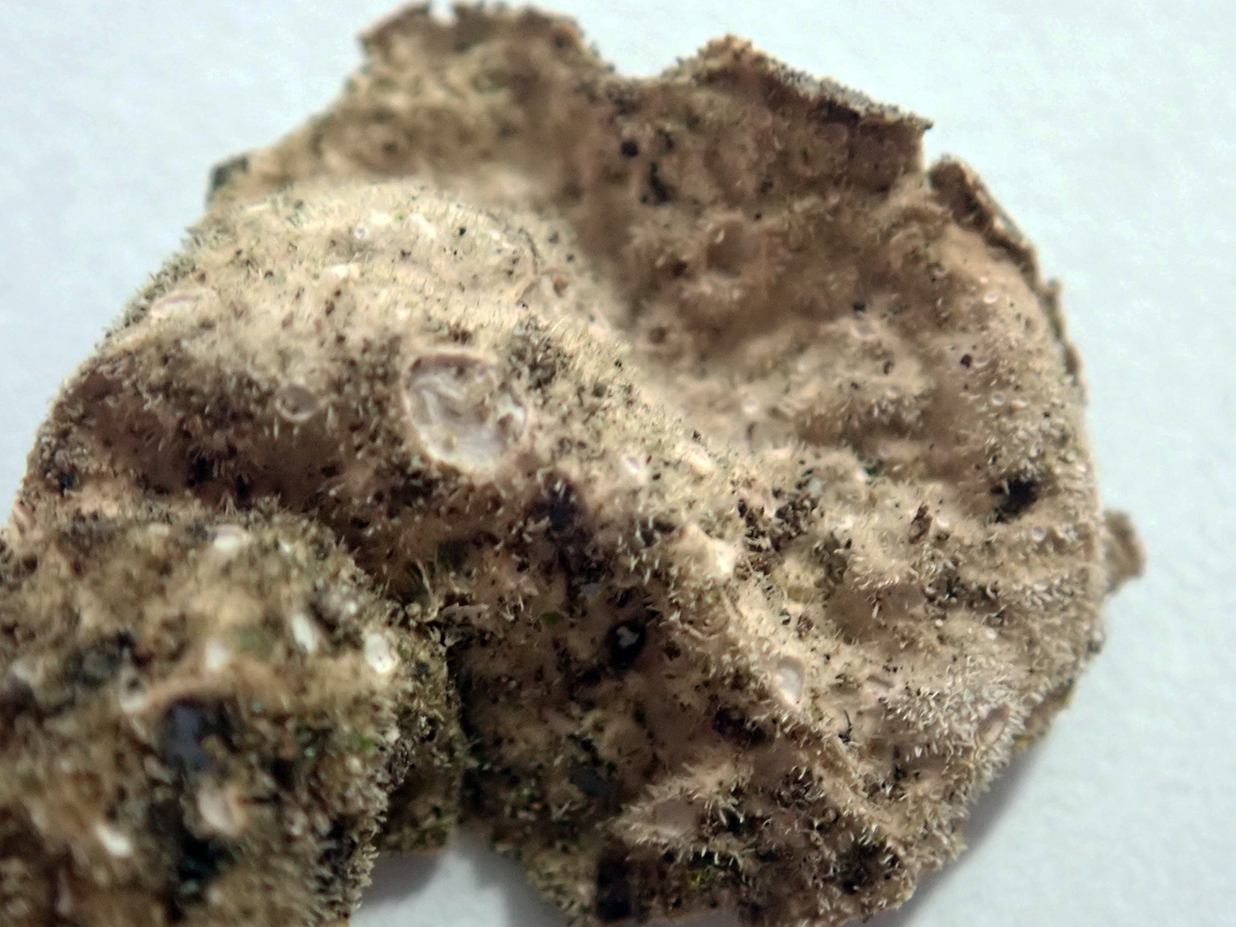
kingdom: Fungi
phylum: Ascomycota
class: Lecanoromycetes
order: Peltigerales
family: Lobariaceae
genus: Sticta
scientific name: Sticta fuliginosa
